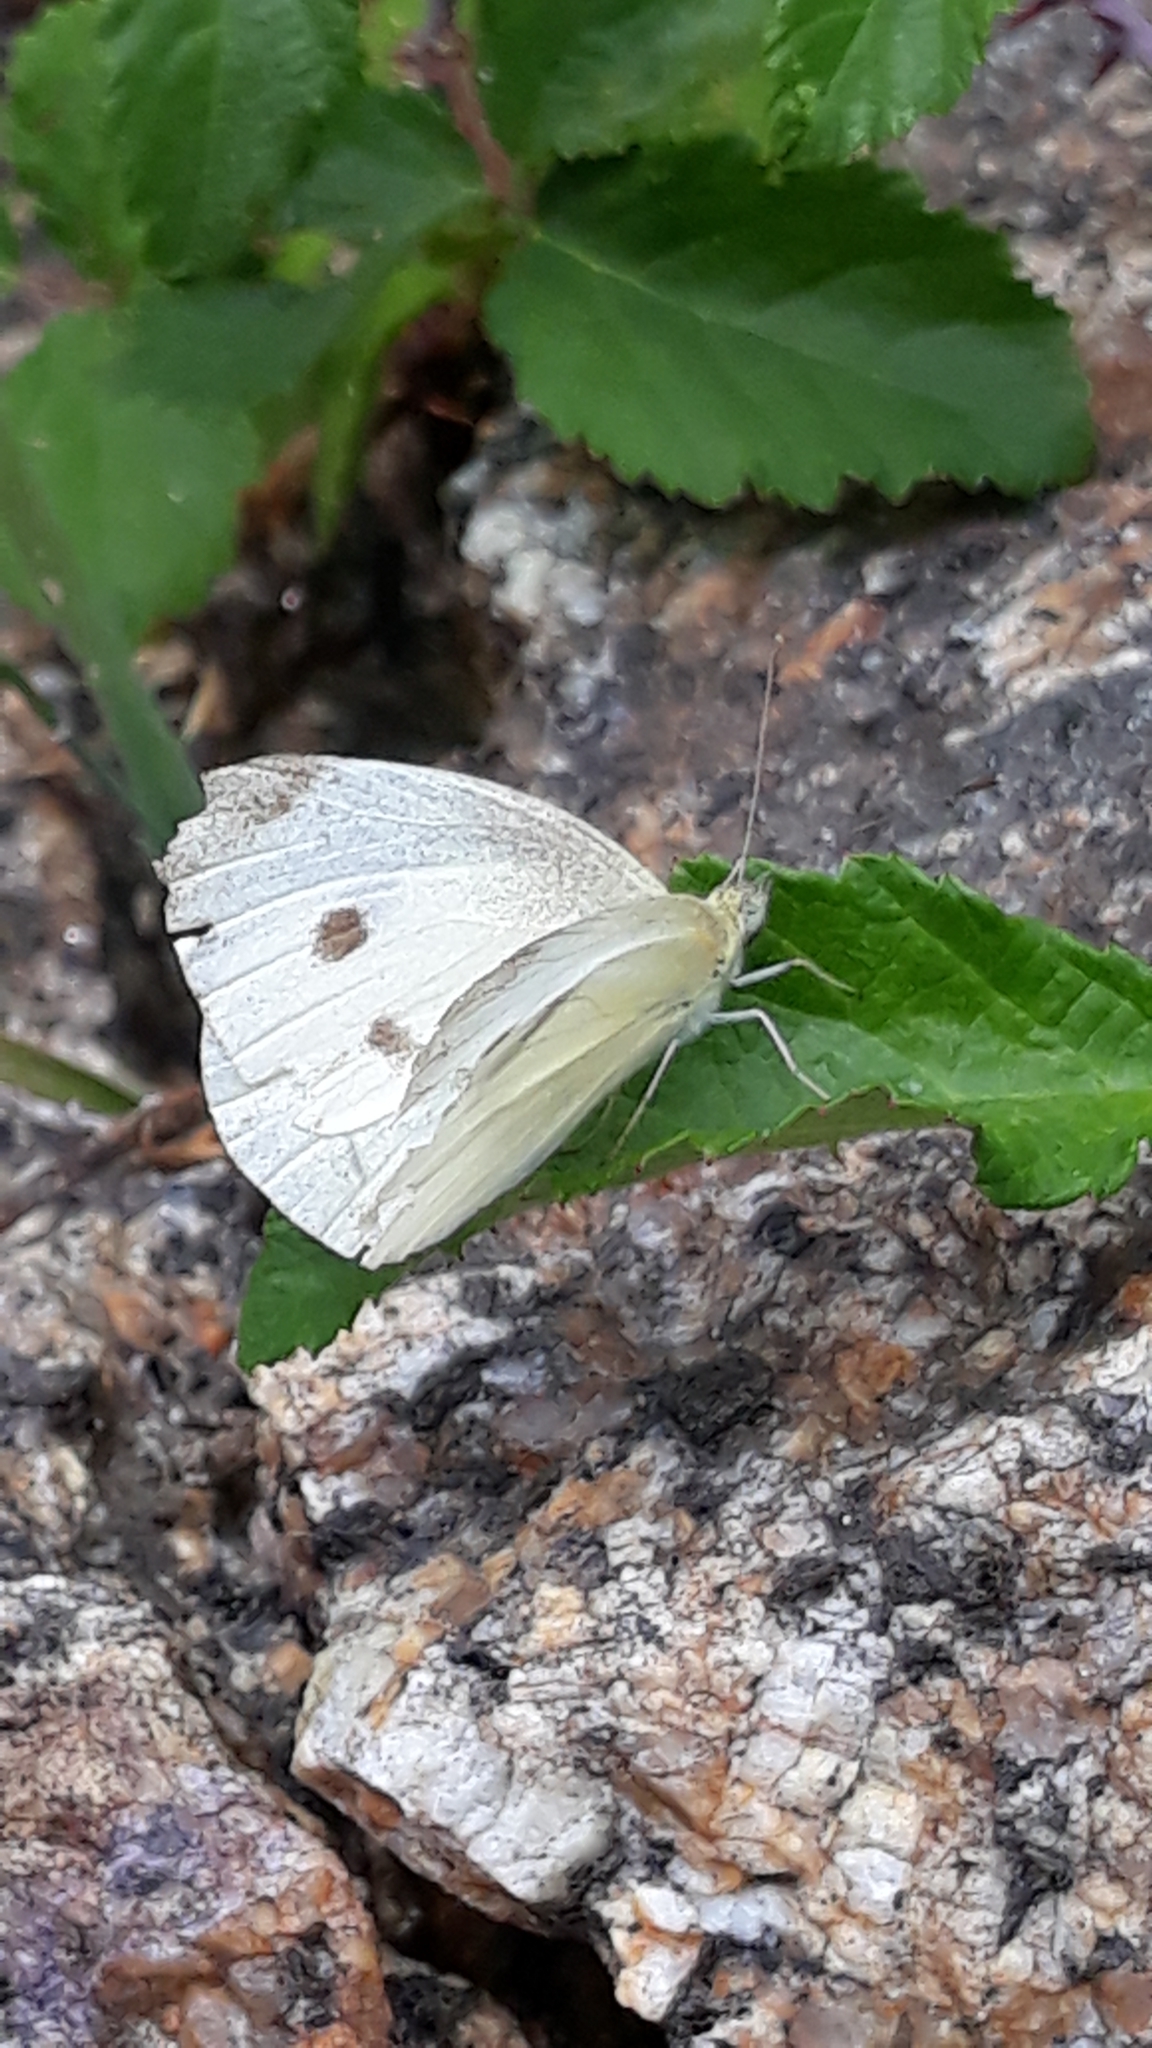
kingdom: Animalia
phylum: Arthropoda
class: Insecta
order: Lepidoptera
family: Pieridae
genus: Pieris
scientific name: Pieris rapae
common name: Small white
